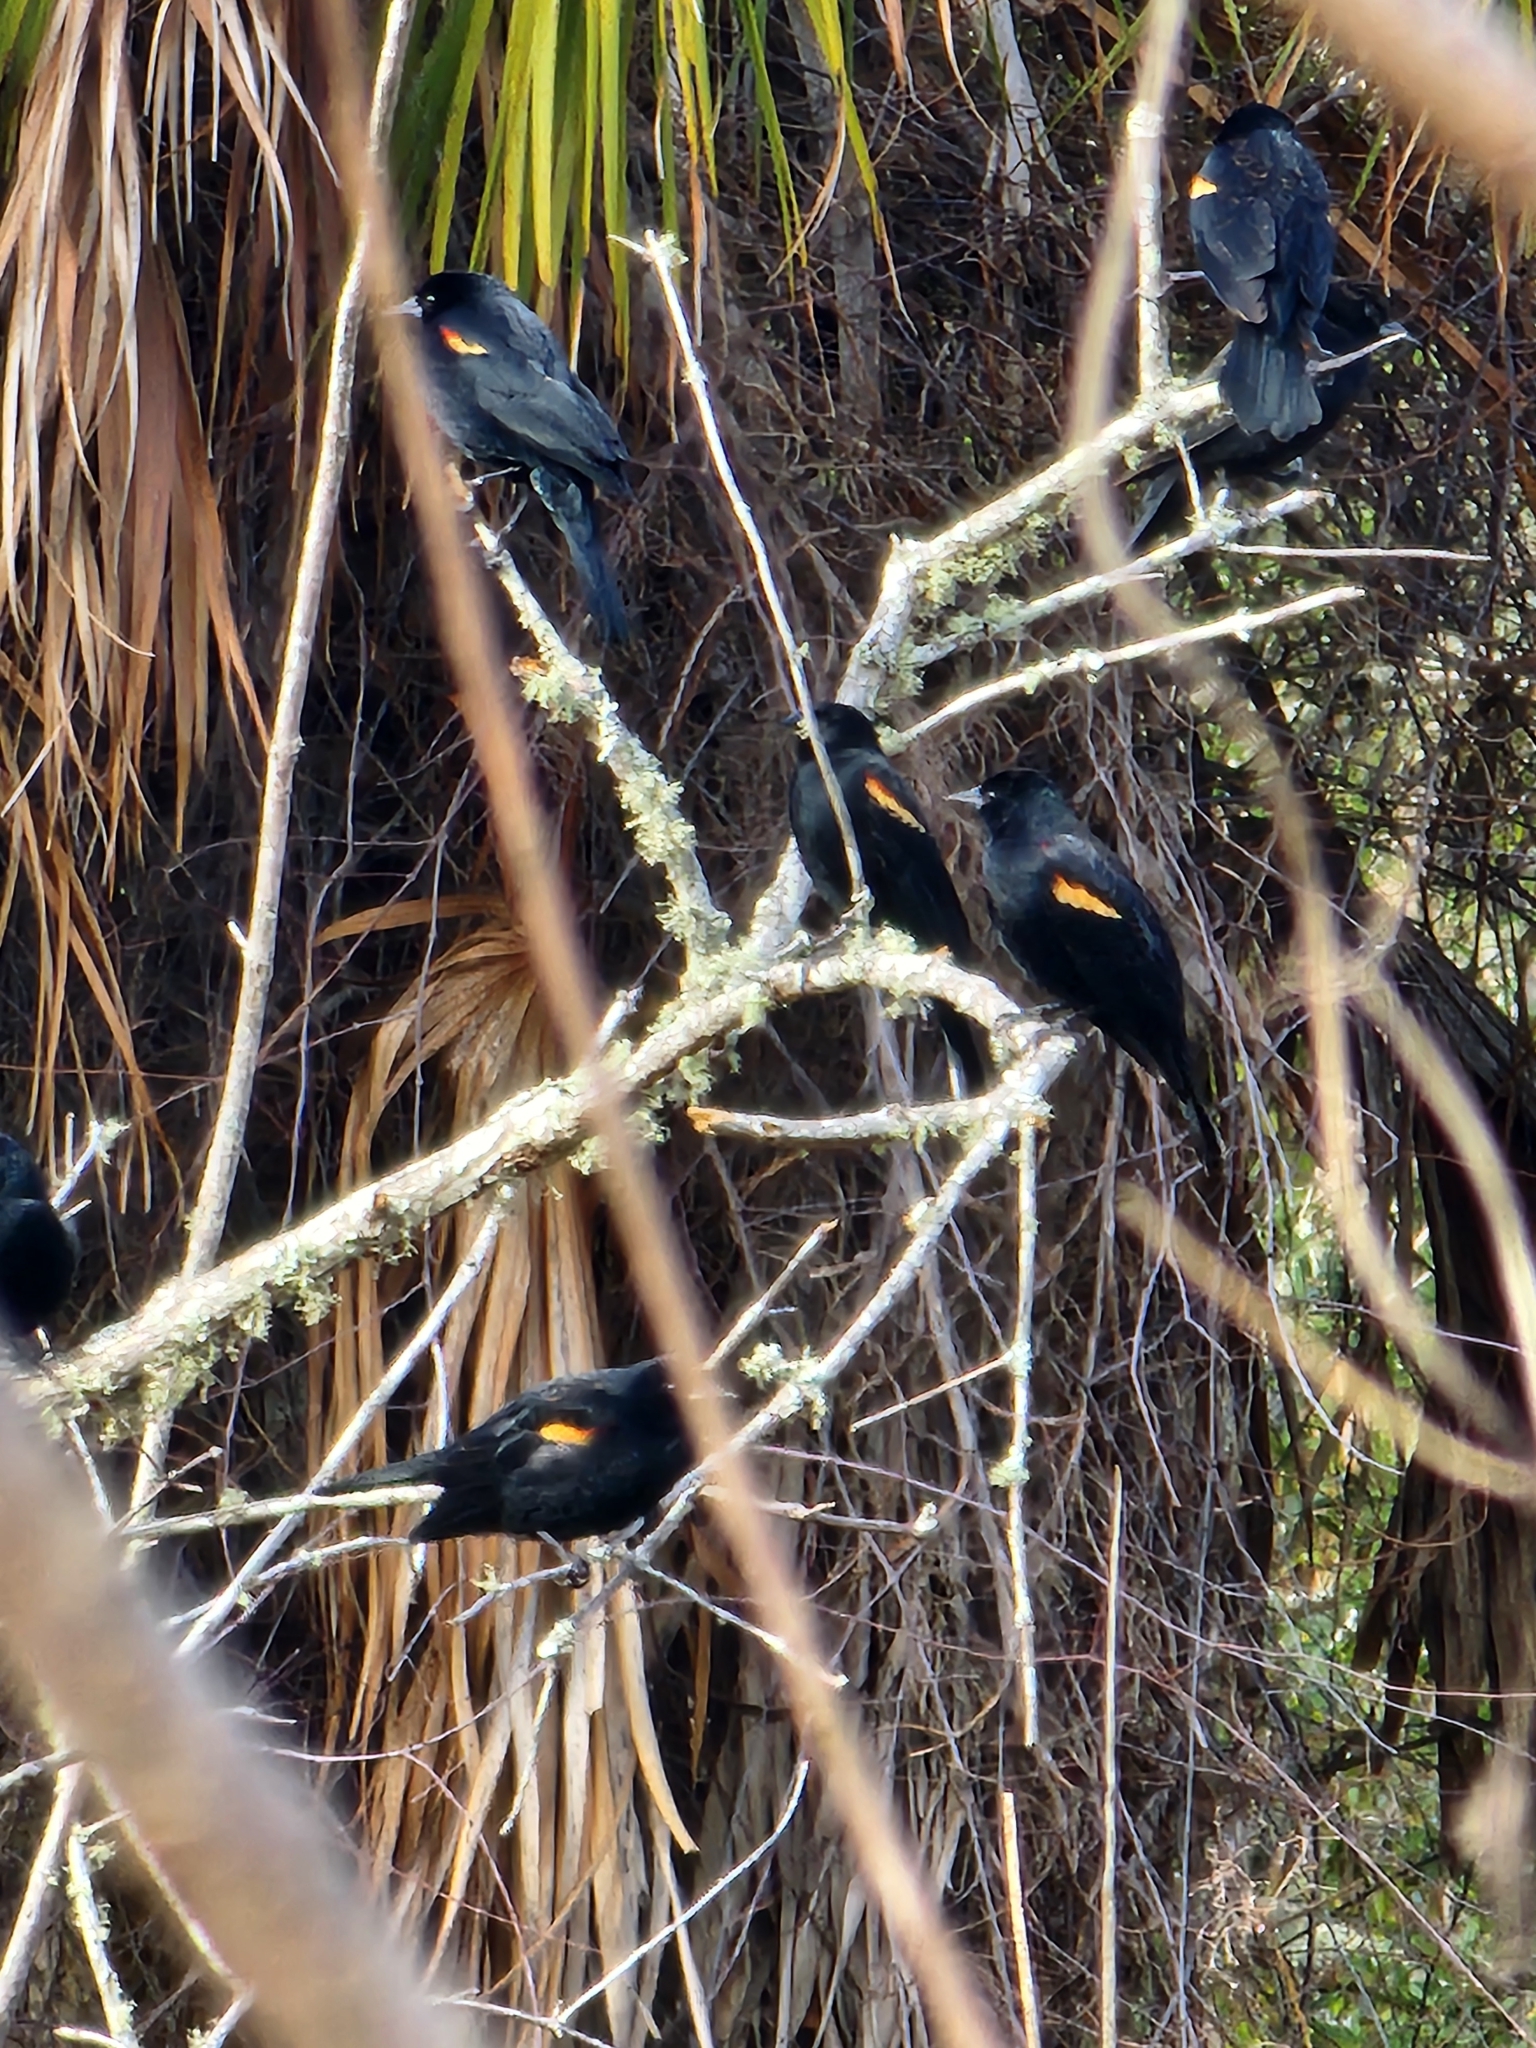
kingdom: Animalia
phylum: Chordata
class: Aves
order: Passeriformes
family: Icteridae
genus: Agelaius
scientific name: Agelaius phoeniceus
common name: Red-winged blackbird
